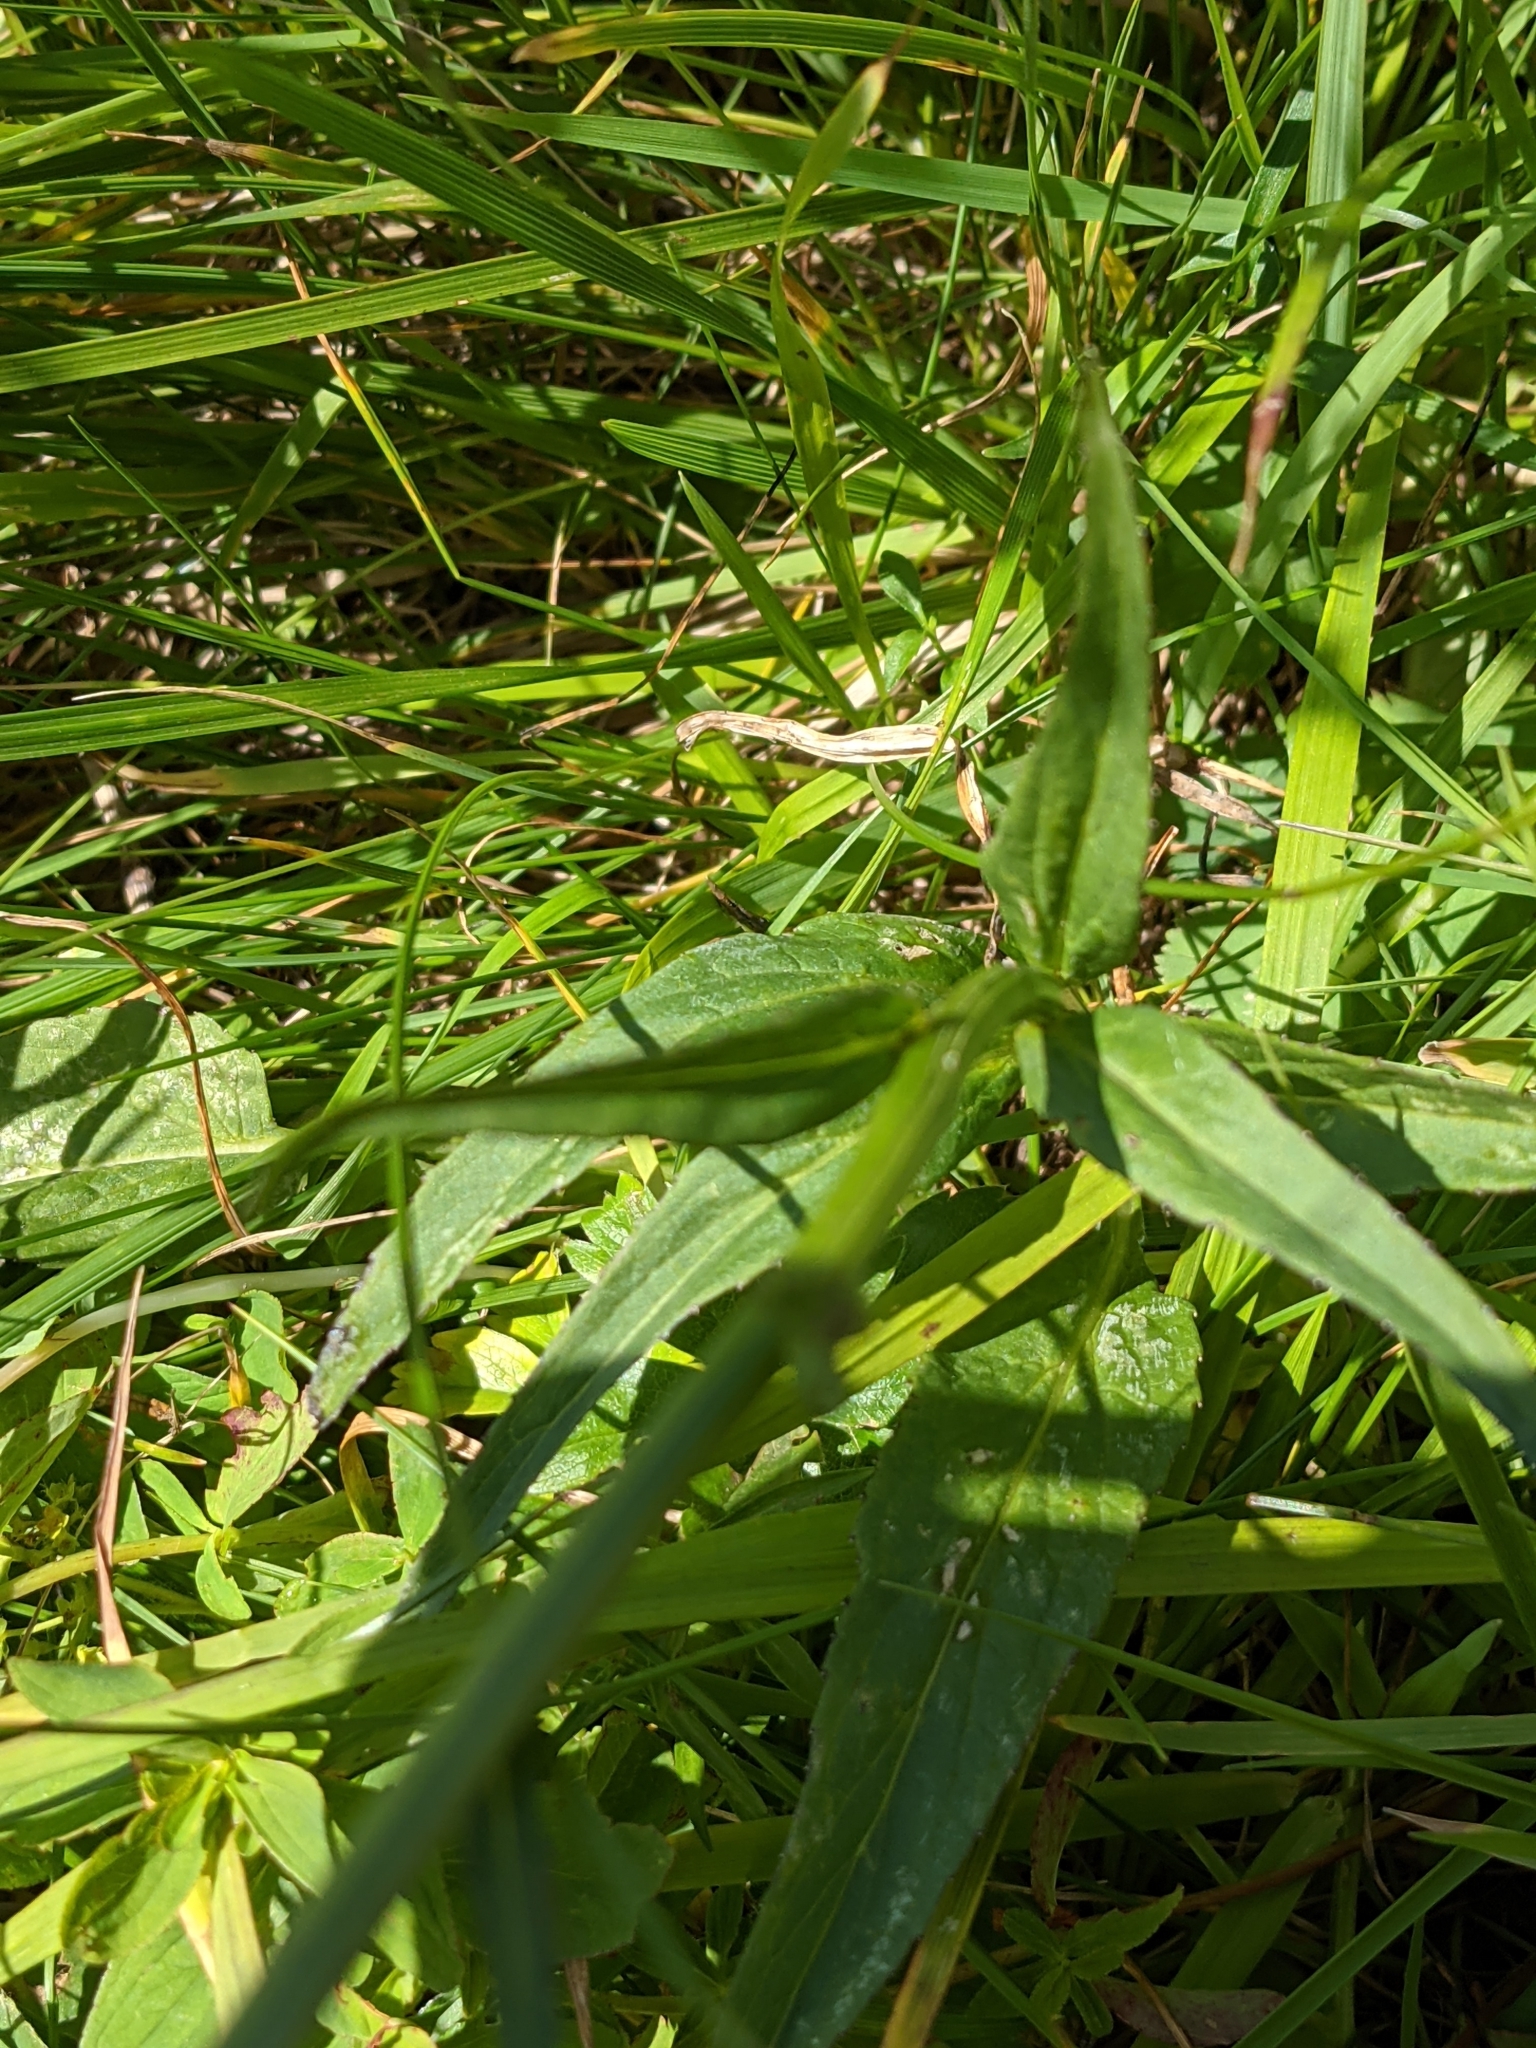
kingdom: Plantae
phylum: Tracheophyta
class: Magnoliopsida
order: Asterales
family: Campanulaceae
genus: Phyteuma
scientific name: Phyteuma betonicifolium
